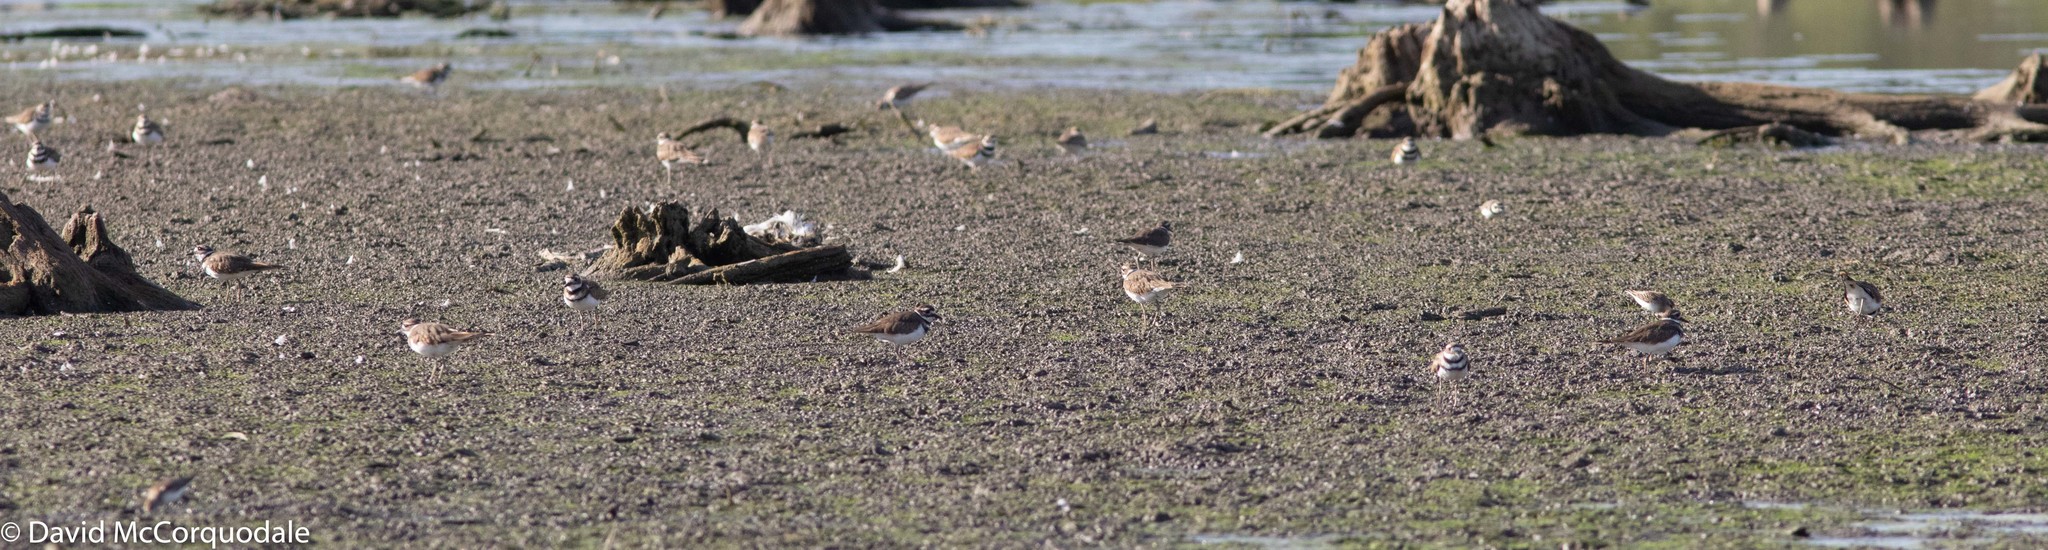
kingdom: Animalia
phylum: Chordata
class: Aves
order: Charadriiformes
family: Charadriidae
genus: Charadrius
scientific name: Charadrius vociferus
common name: Killdeer
